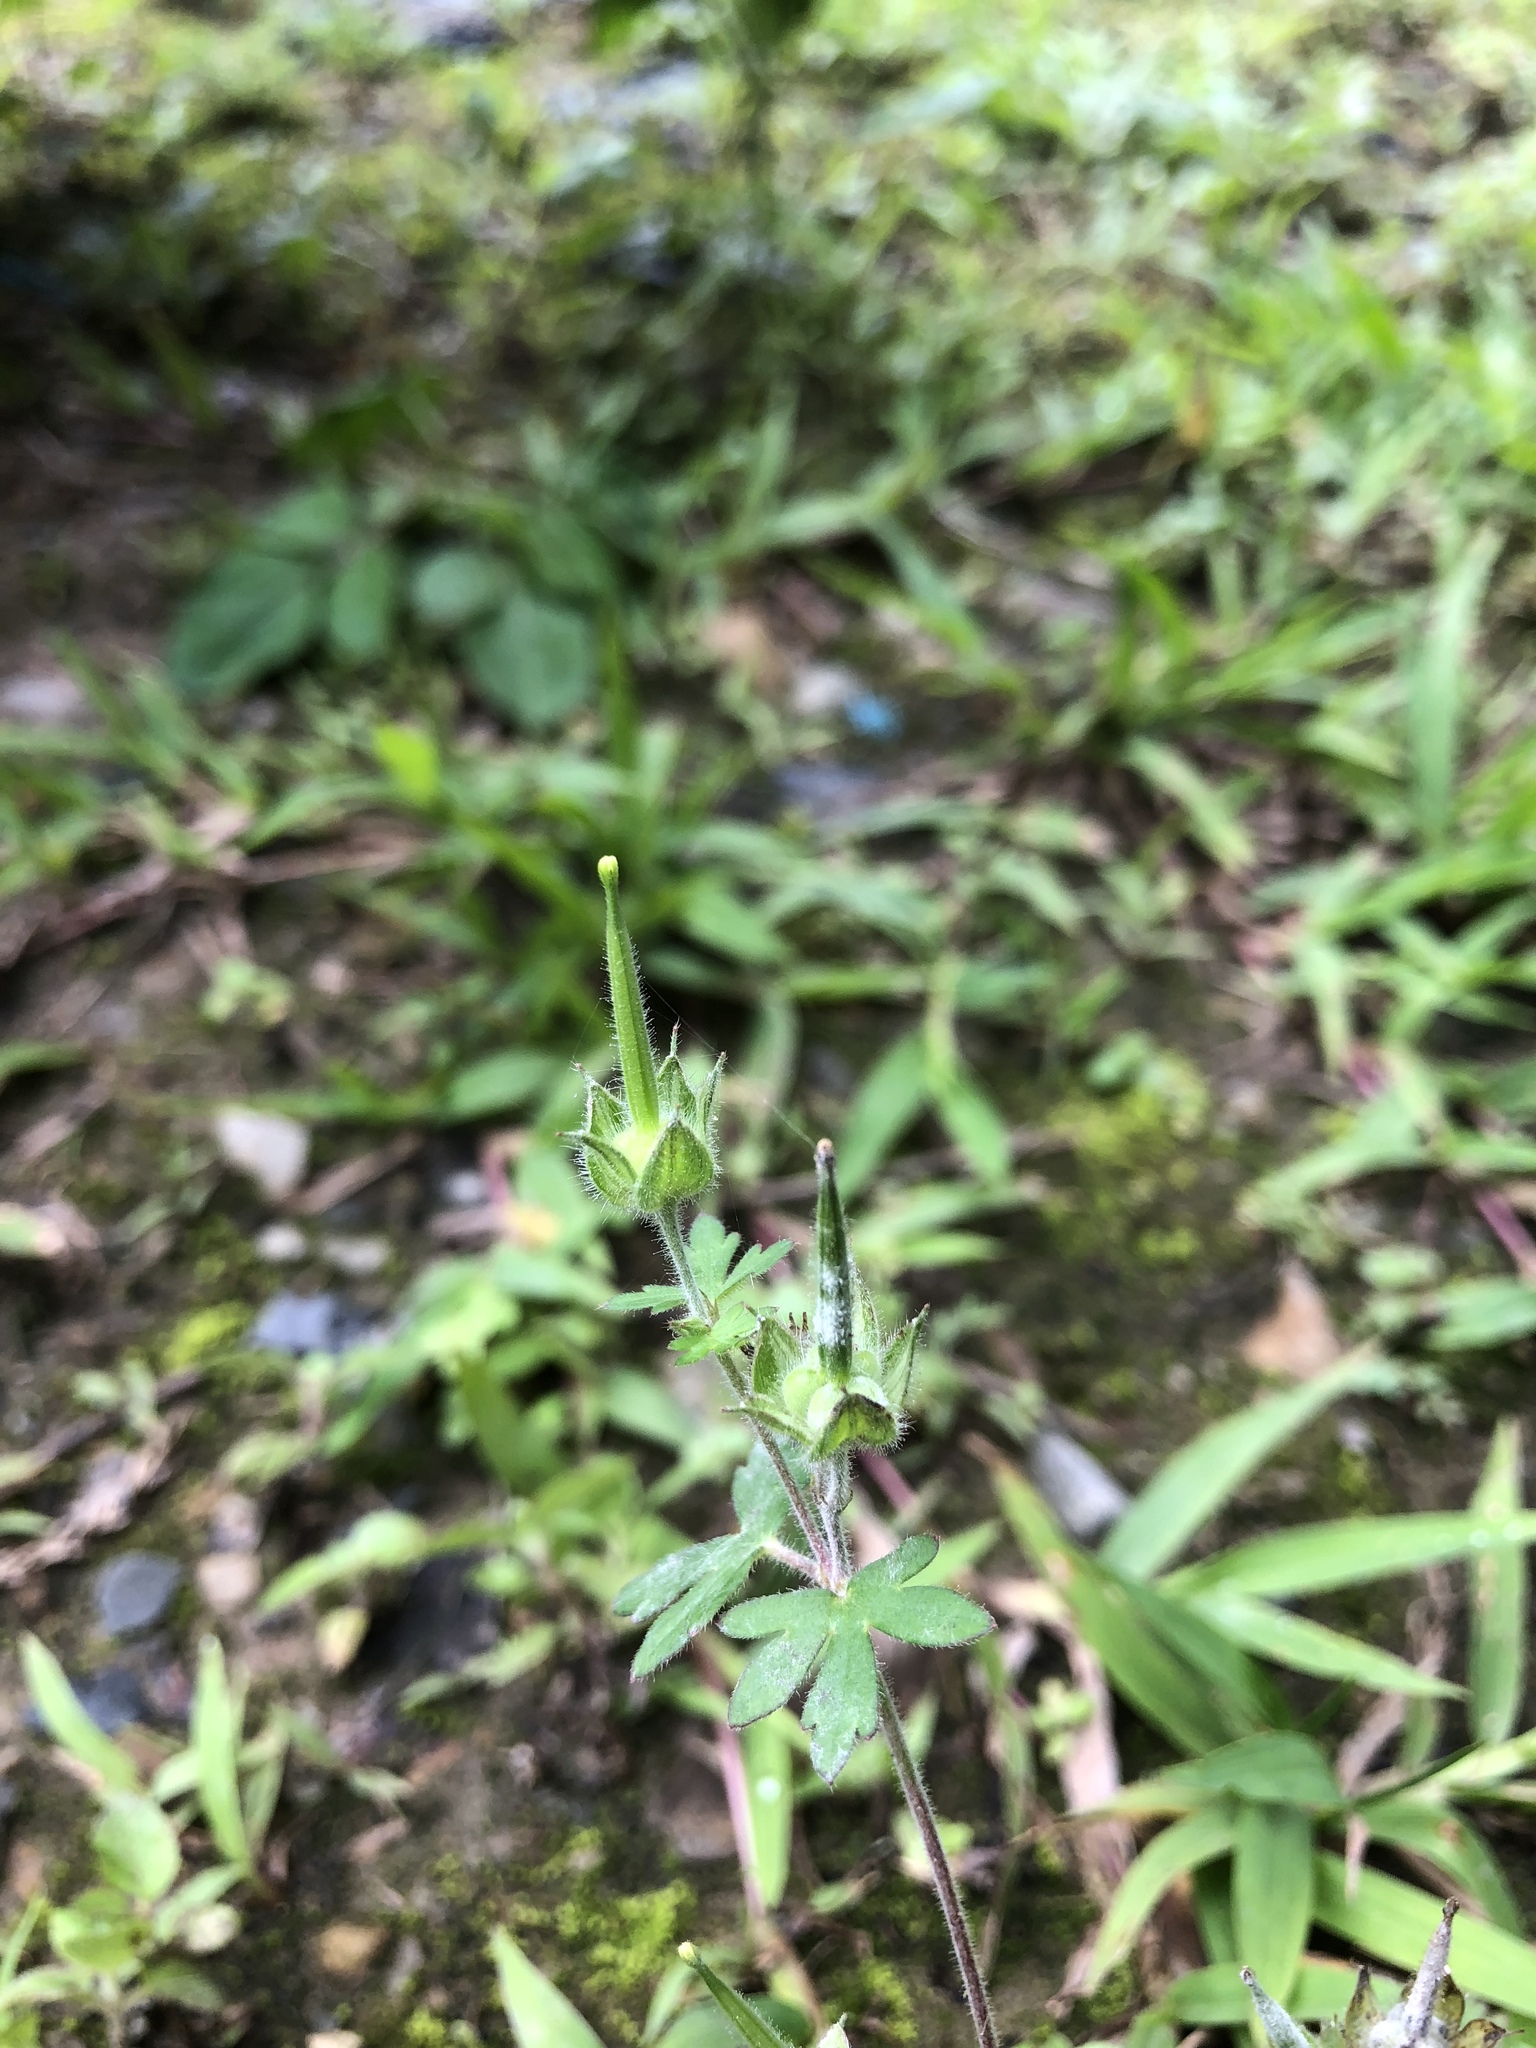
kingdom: Plantae
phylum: Tracheophyta
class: Magnoliopsida
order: Geraniales
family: Geraniaceae
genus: Geranium
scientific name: Geranium wilfordii
